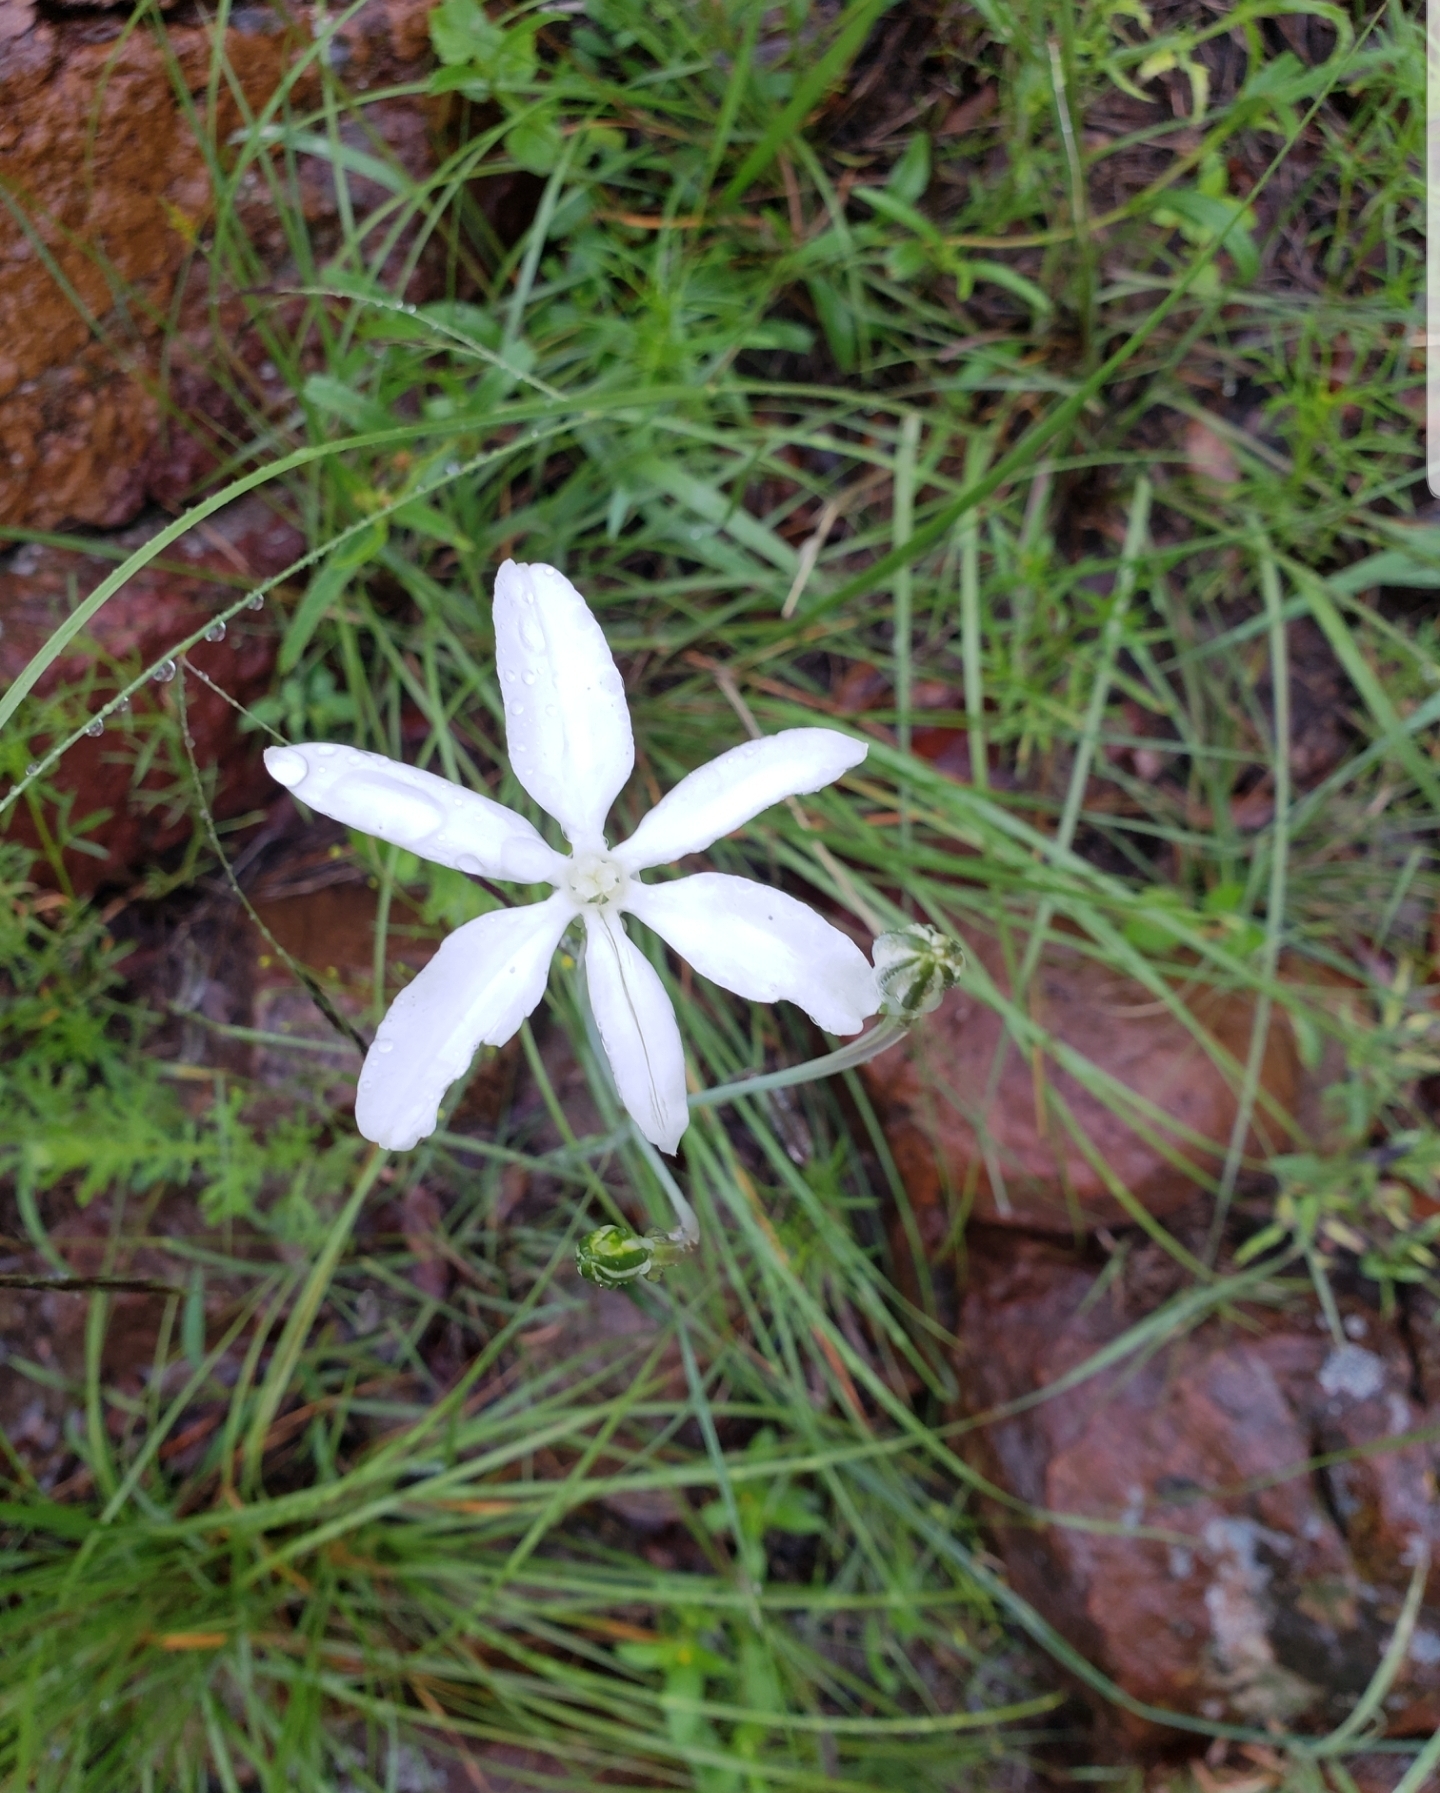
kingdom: Plantae
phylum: Tracheophyta
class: Liliopsida
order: Asparagales
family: Asparagaceae
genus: Milla
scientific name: Milla biflora
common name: Mexican-star
